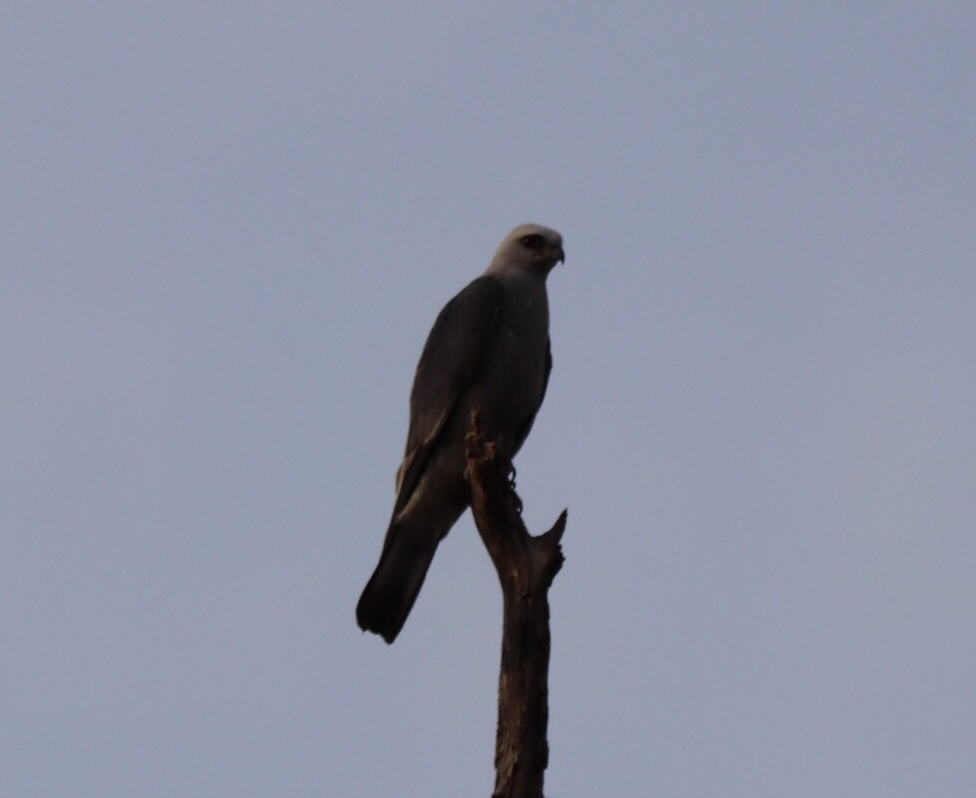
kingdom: Animalia
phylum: Chordata
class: Aves
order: Accipitriformes
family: Accipitridae
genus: Ictinia
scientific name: Ictinia mississippiensis
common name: Mississippi kite
